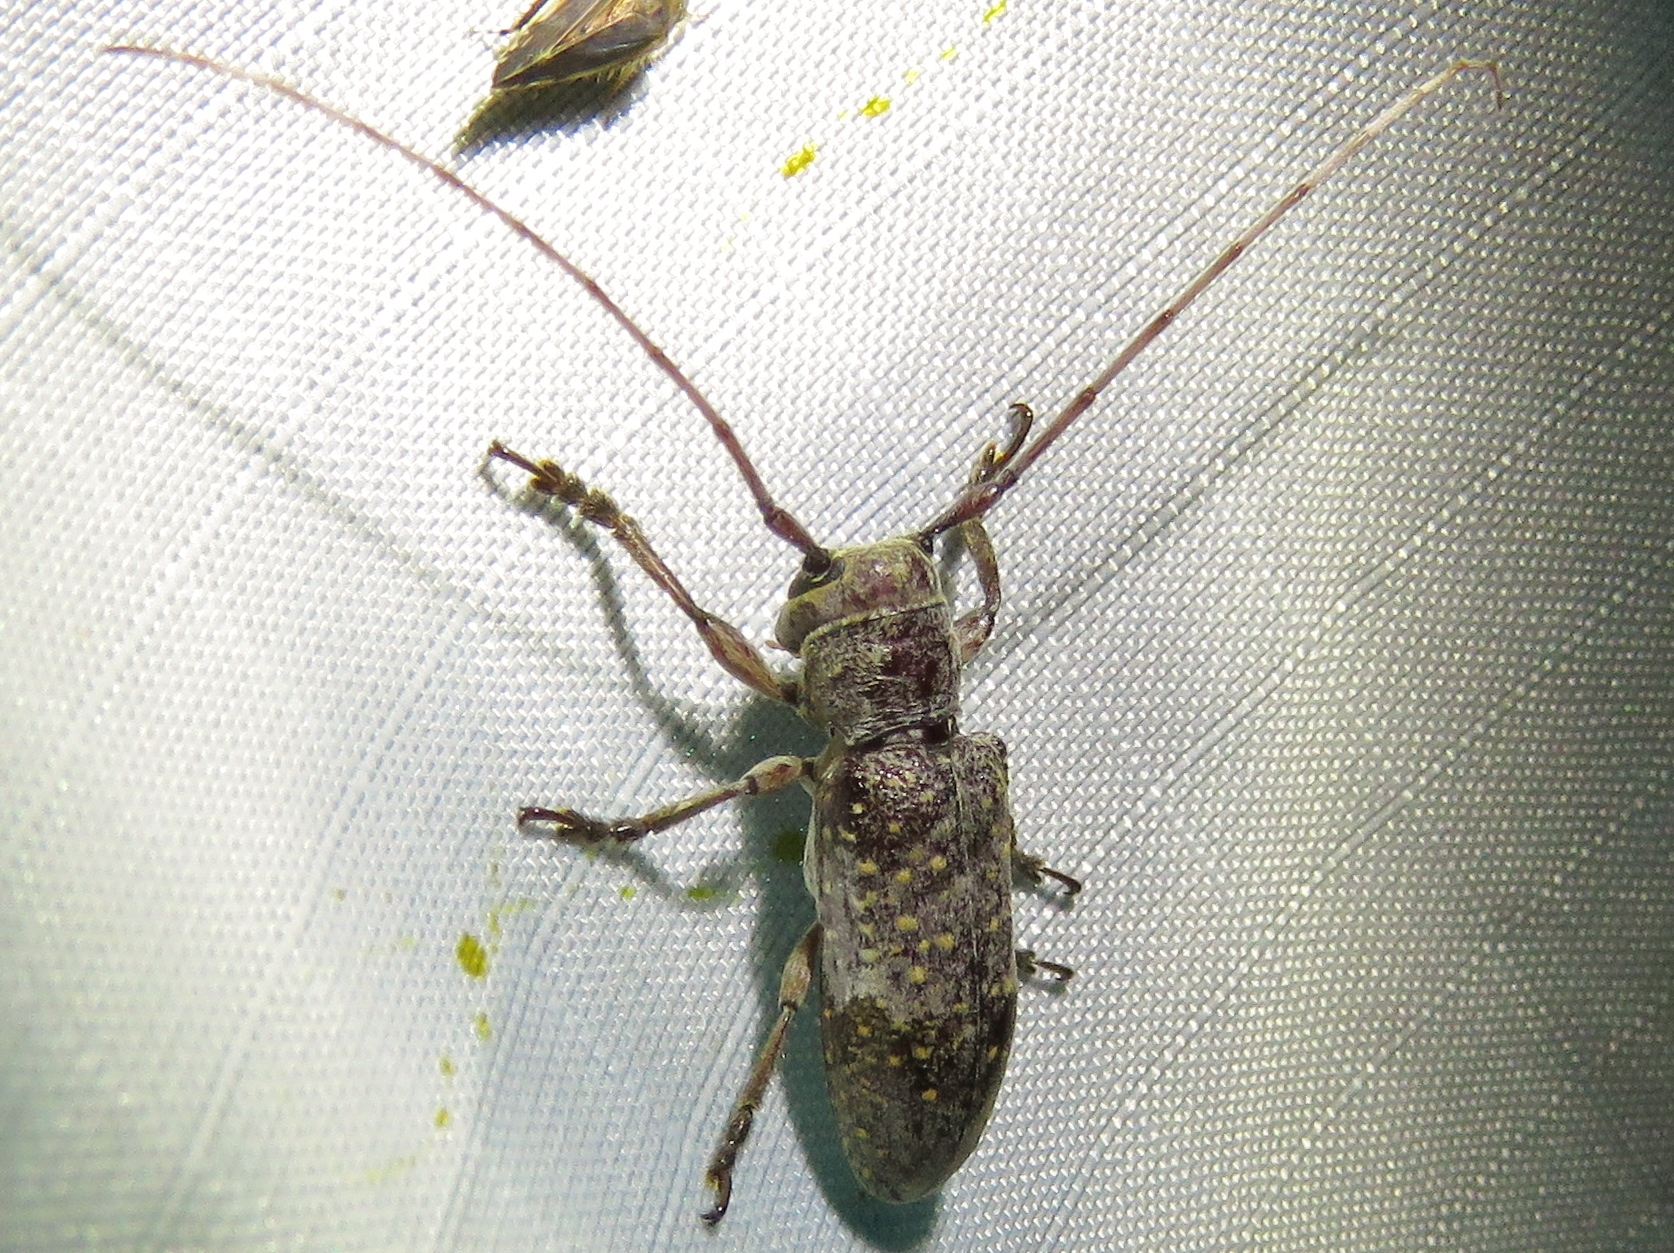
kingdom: Animalia
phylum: Arthropoda
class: Insecta
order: Coleoptera
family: Cerambycidae
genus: Oncideres
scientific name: Oncideres rhodosticta
